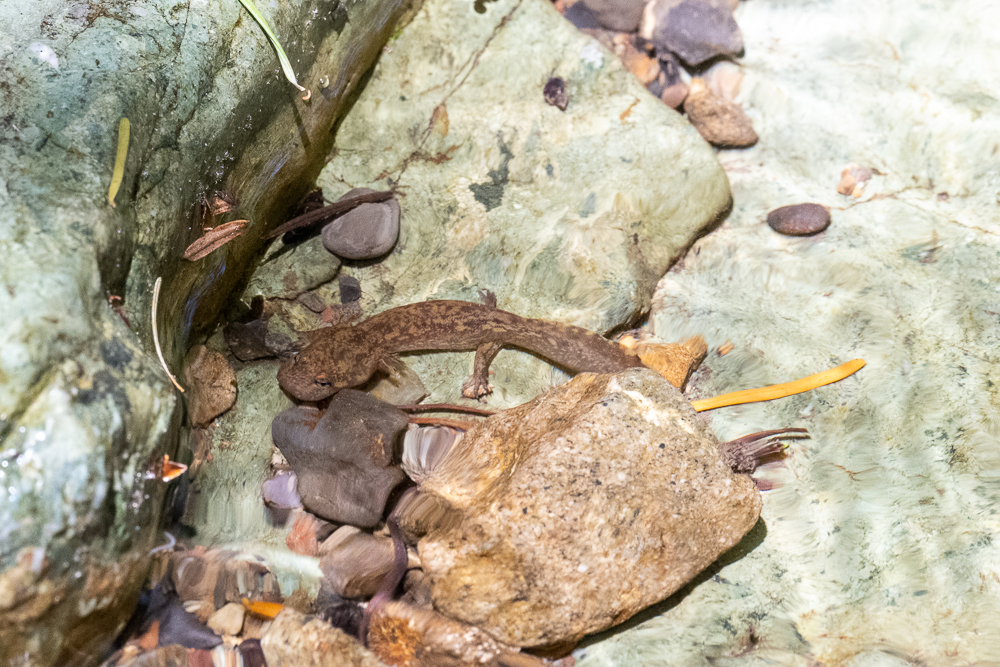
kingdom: Animalia
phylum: Chordata
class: Amphibia
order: Caudata
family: Ambystomatidae
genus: Dicamptodon
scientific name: Dicamptodon ensatus
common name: California giant salamander
